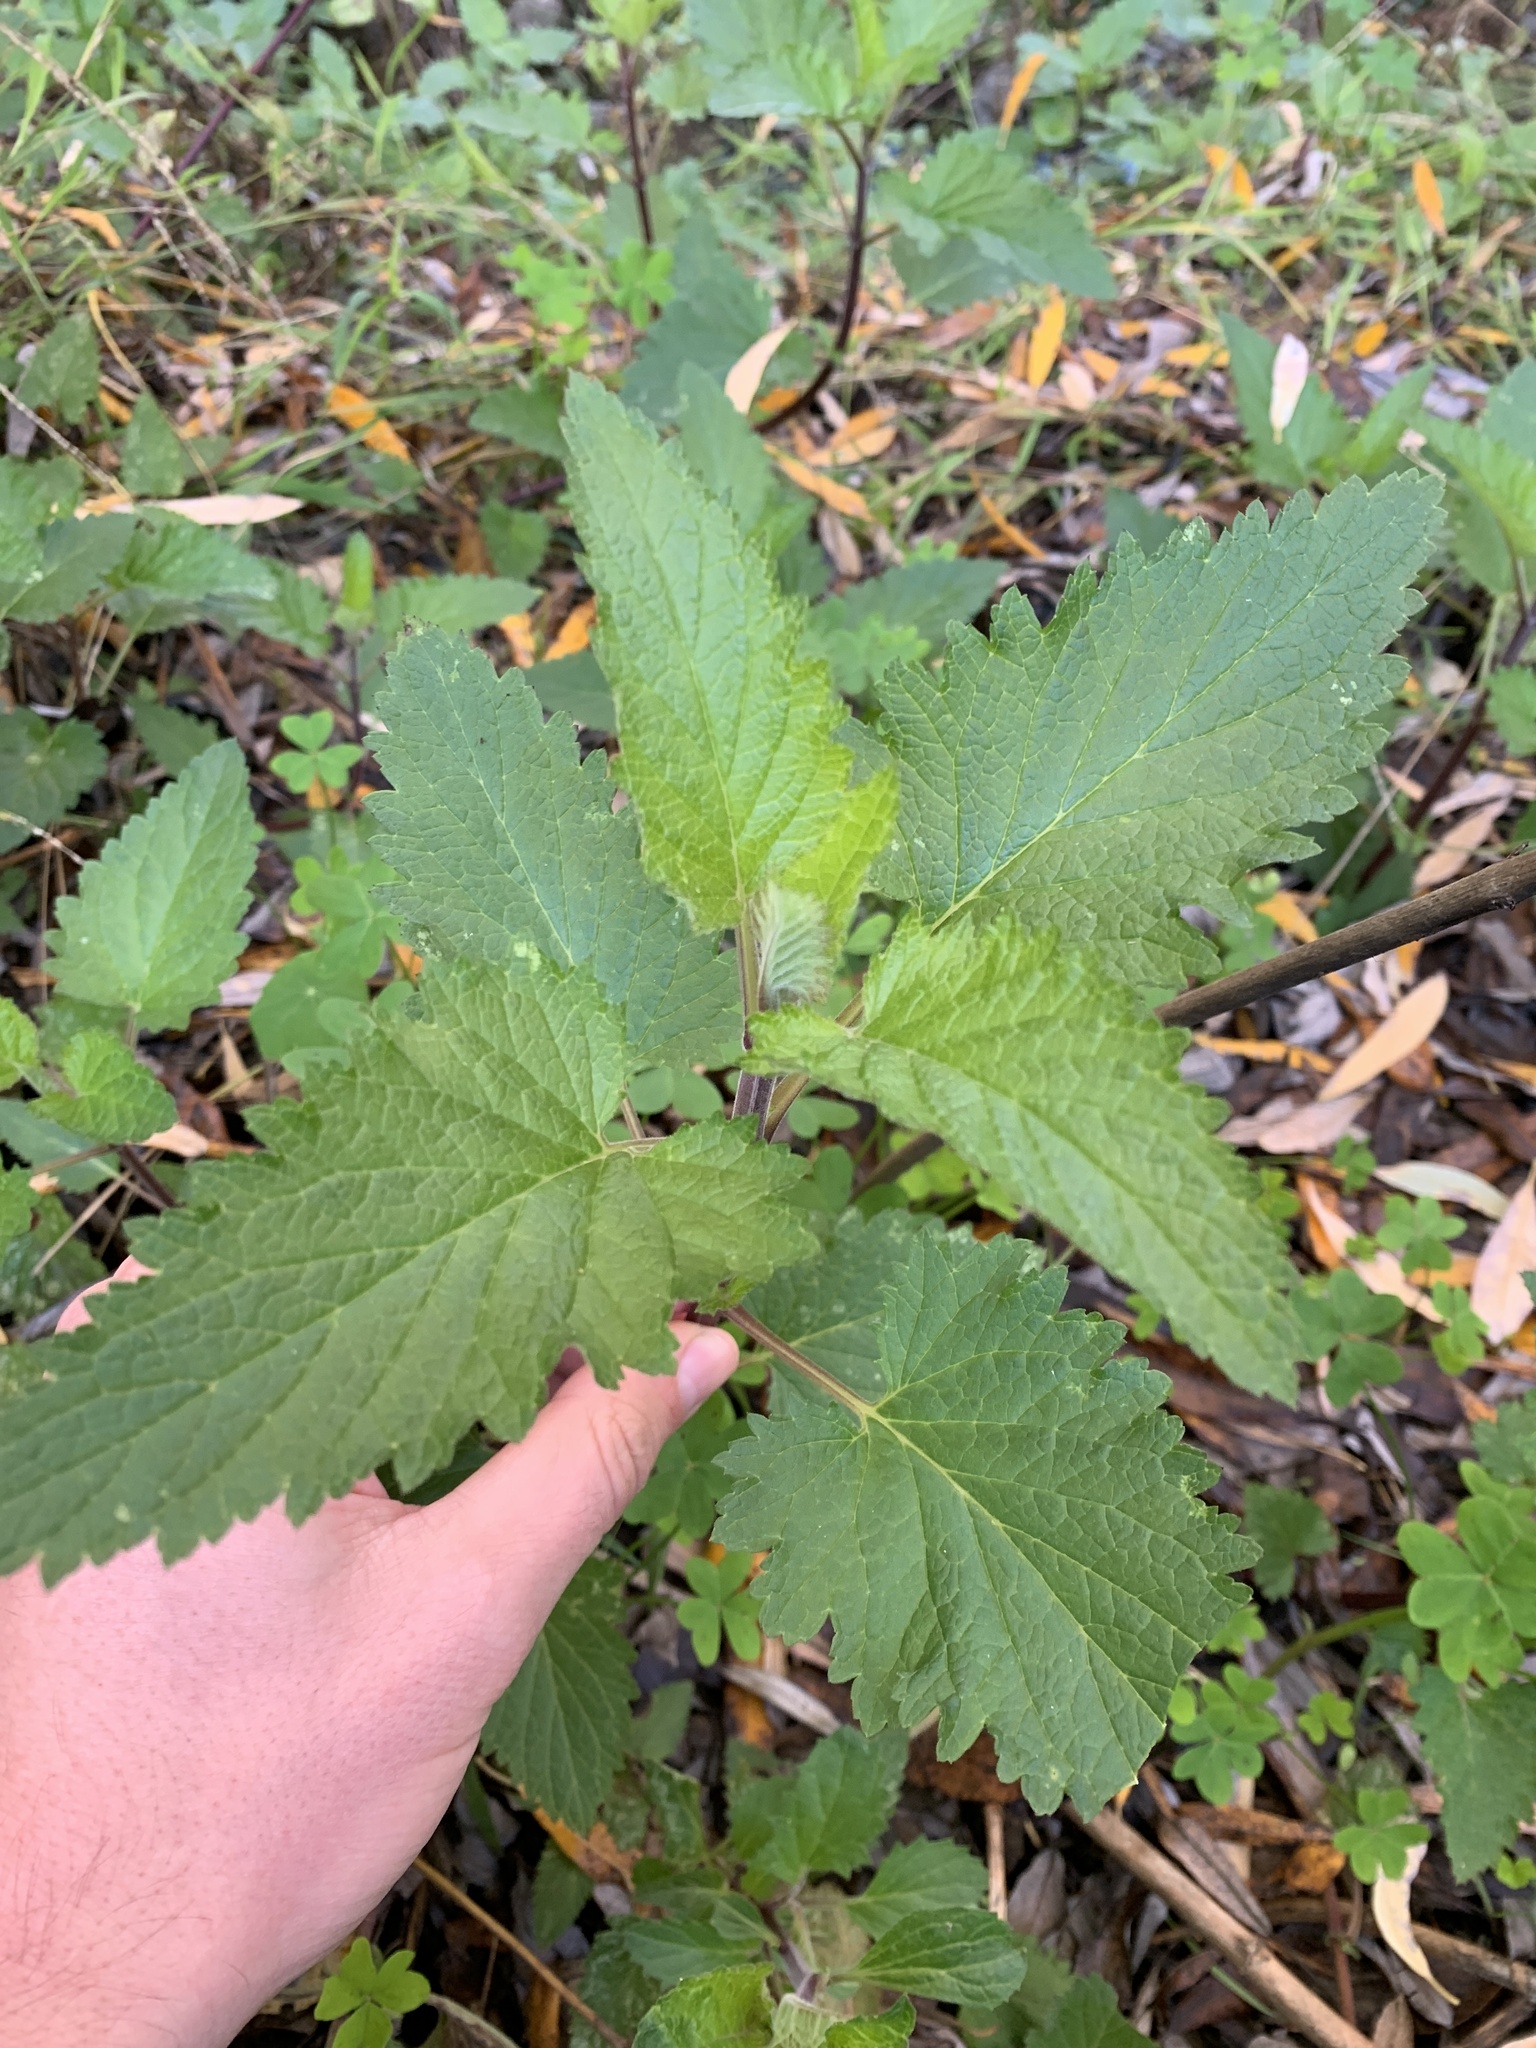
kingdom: Plantae
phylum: Tracheophyta
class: Magnoliopsida
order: Lamiales
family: Scrophulariaceae
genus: Scrophularia
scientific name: Scrophularia californica
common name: California figwort
